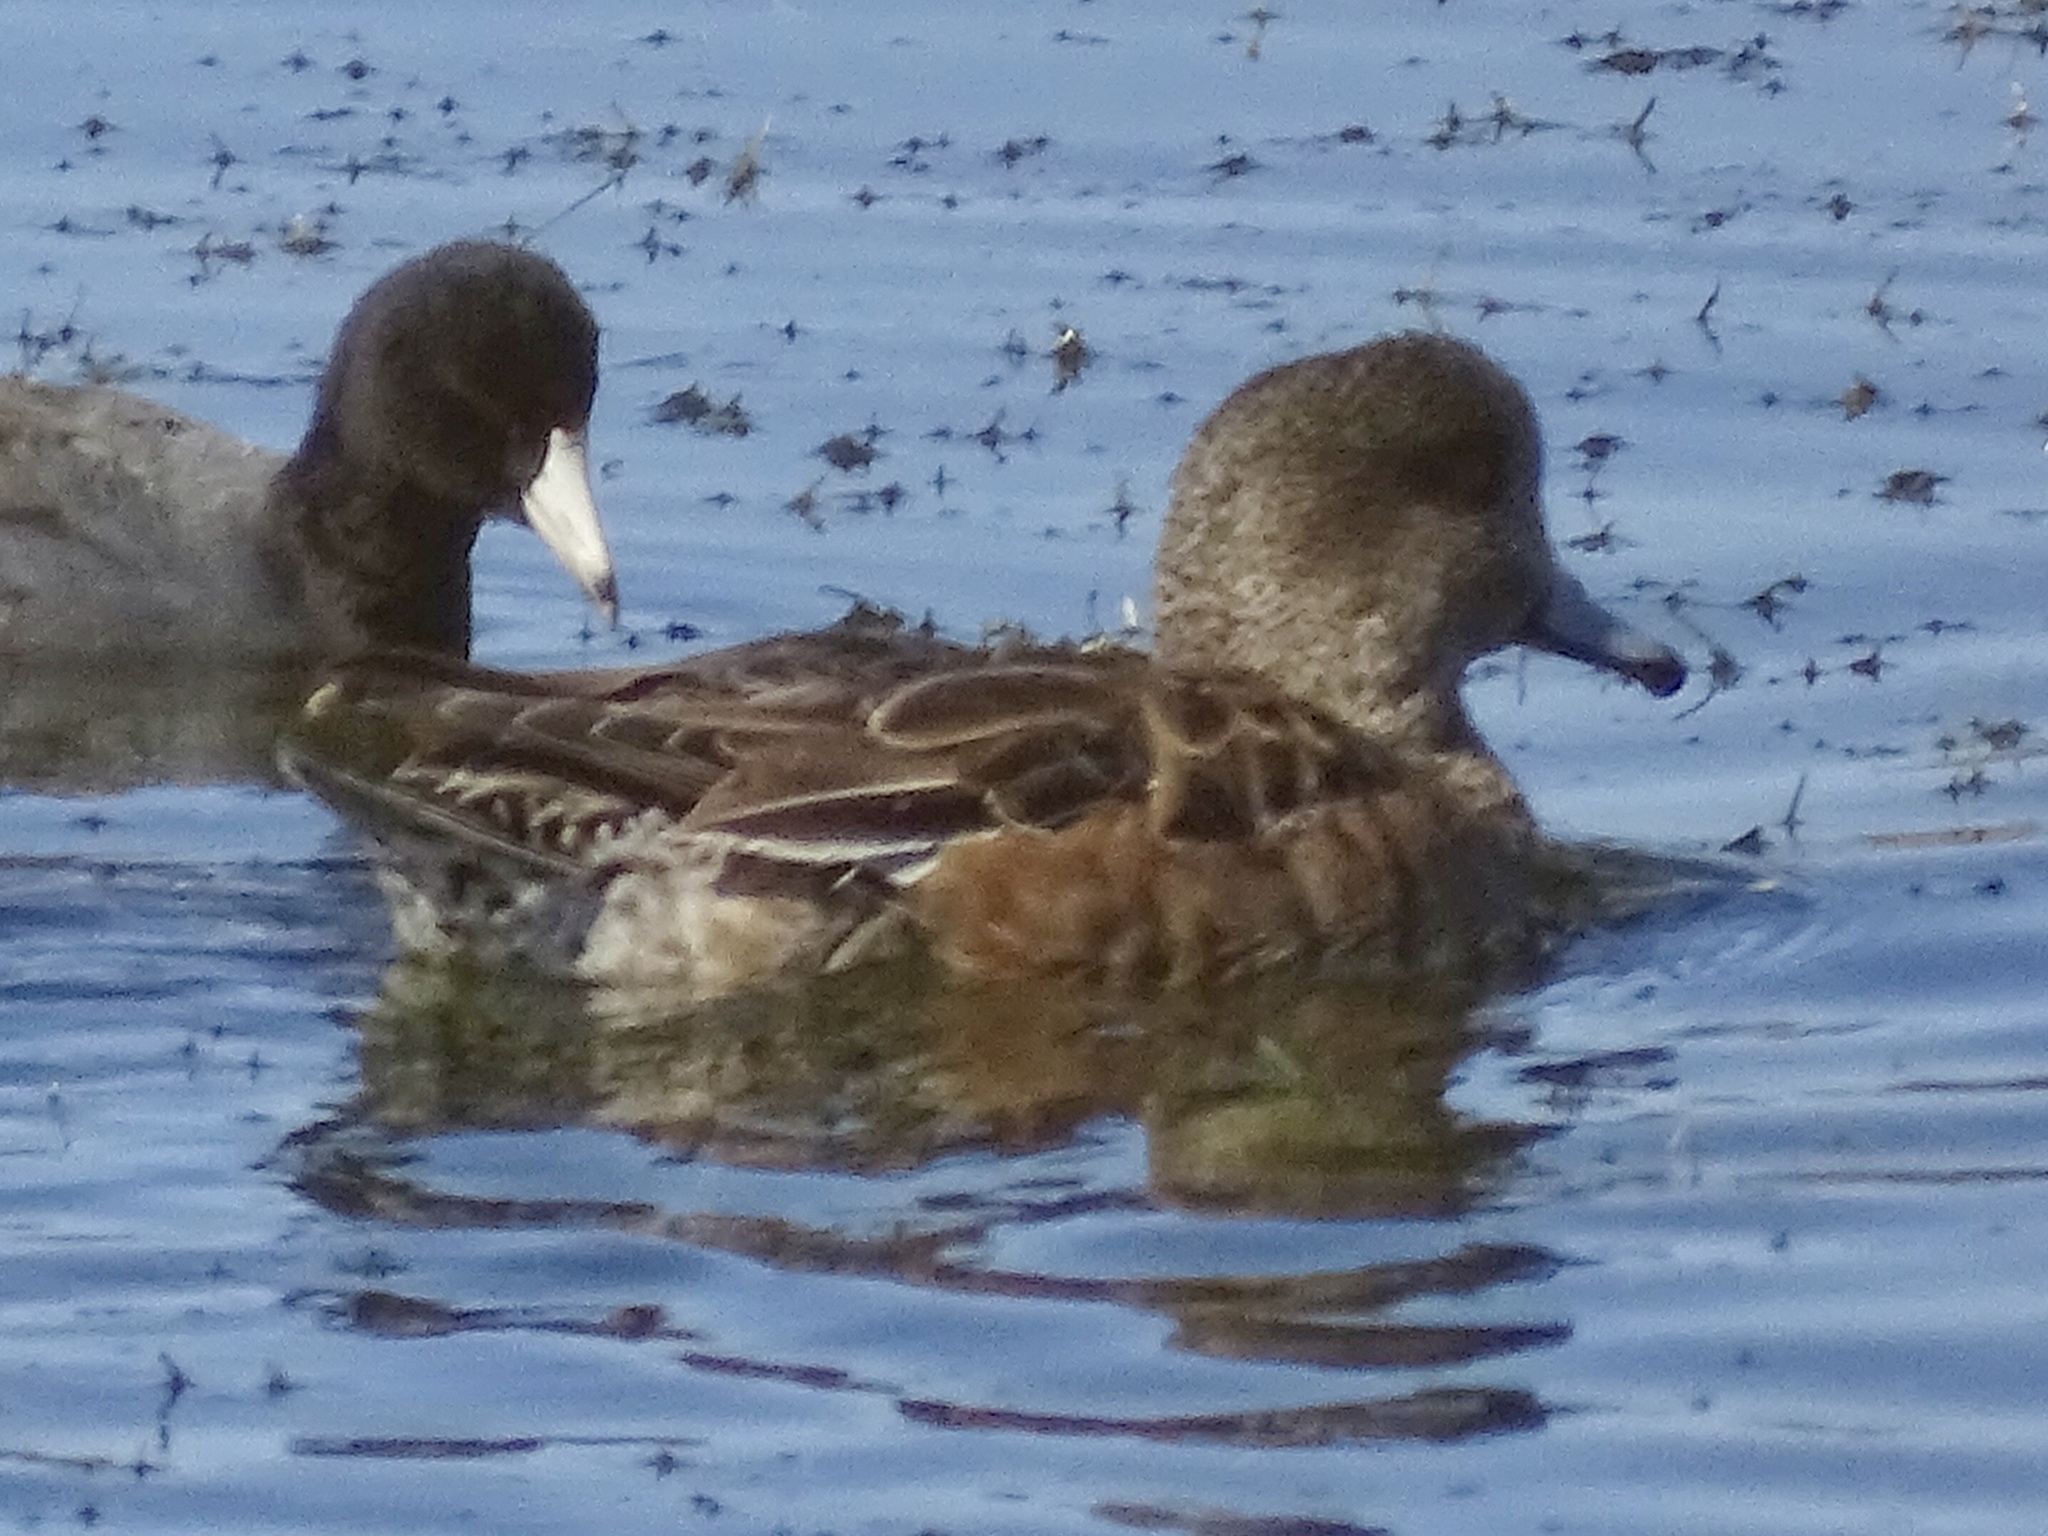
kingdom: Animalia
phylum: Chordata
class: Aves
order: Anseriformes
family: Anatidae
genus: Mareca
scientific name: Mareca americana
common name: American wigeon
